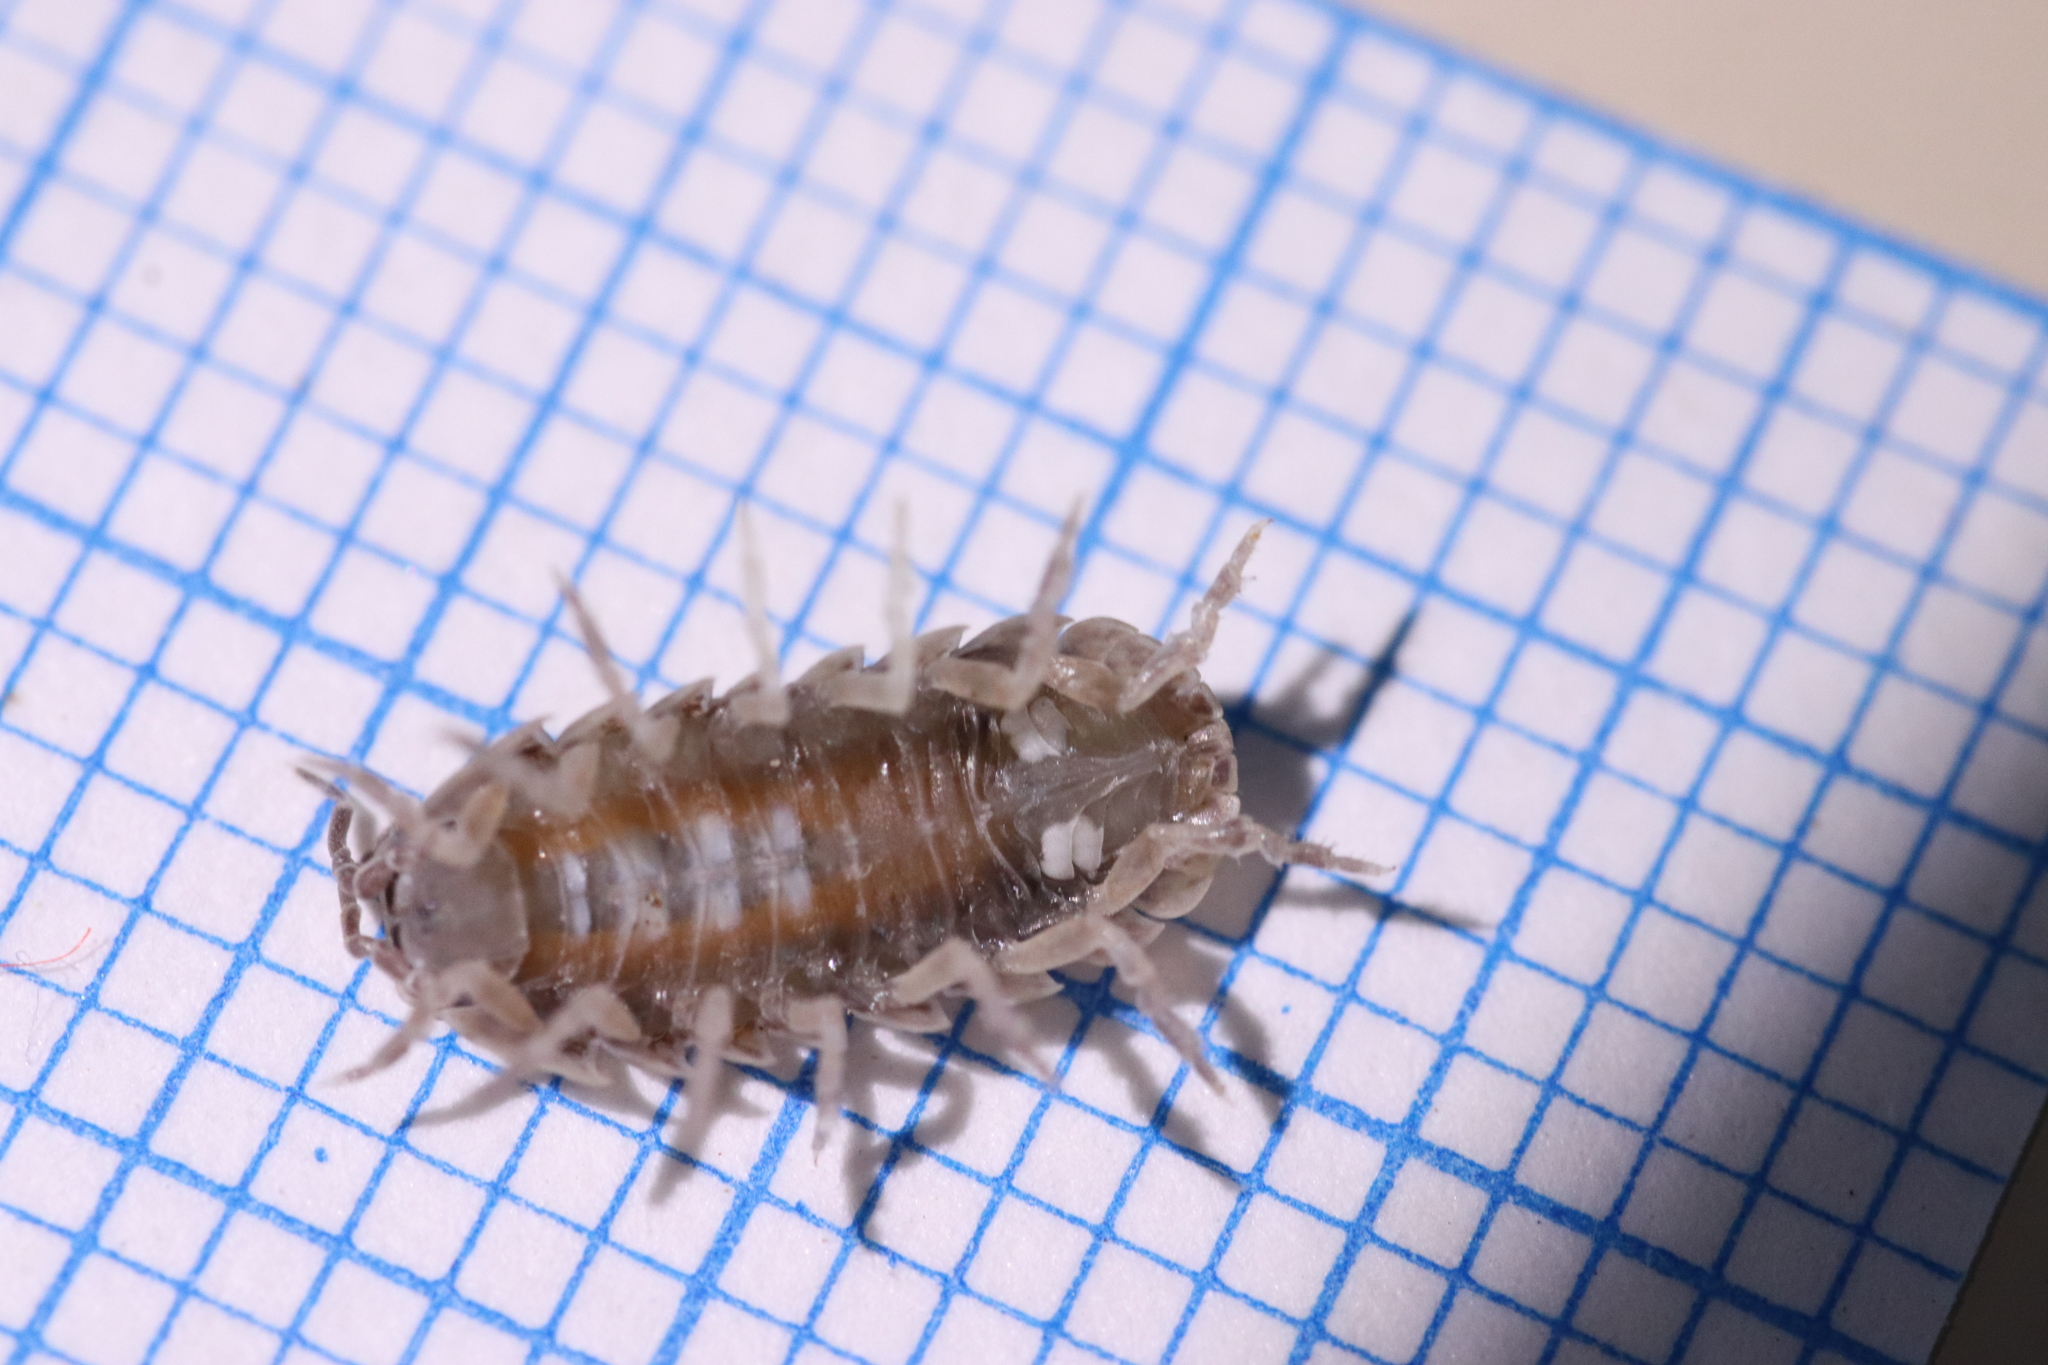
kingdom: Animalia
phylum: Arthropoda
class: Malacostraca
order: Isopoda
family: Armadillidiidae
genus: Armadillidium
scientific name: Armadillidium vulgare
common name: Common pill woodlouse
